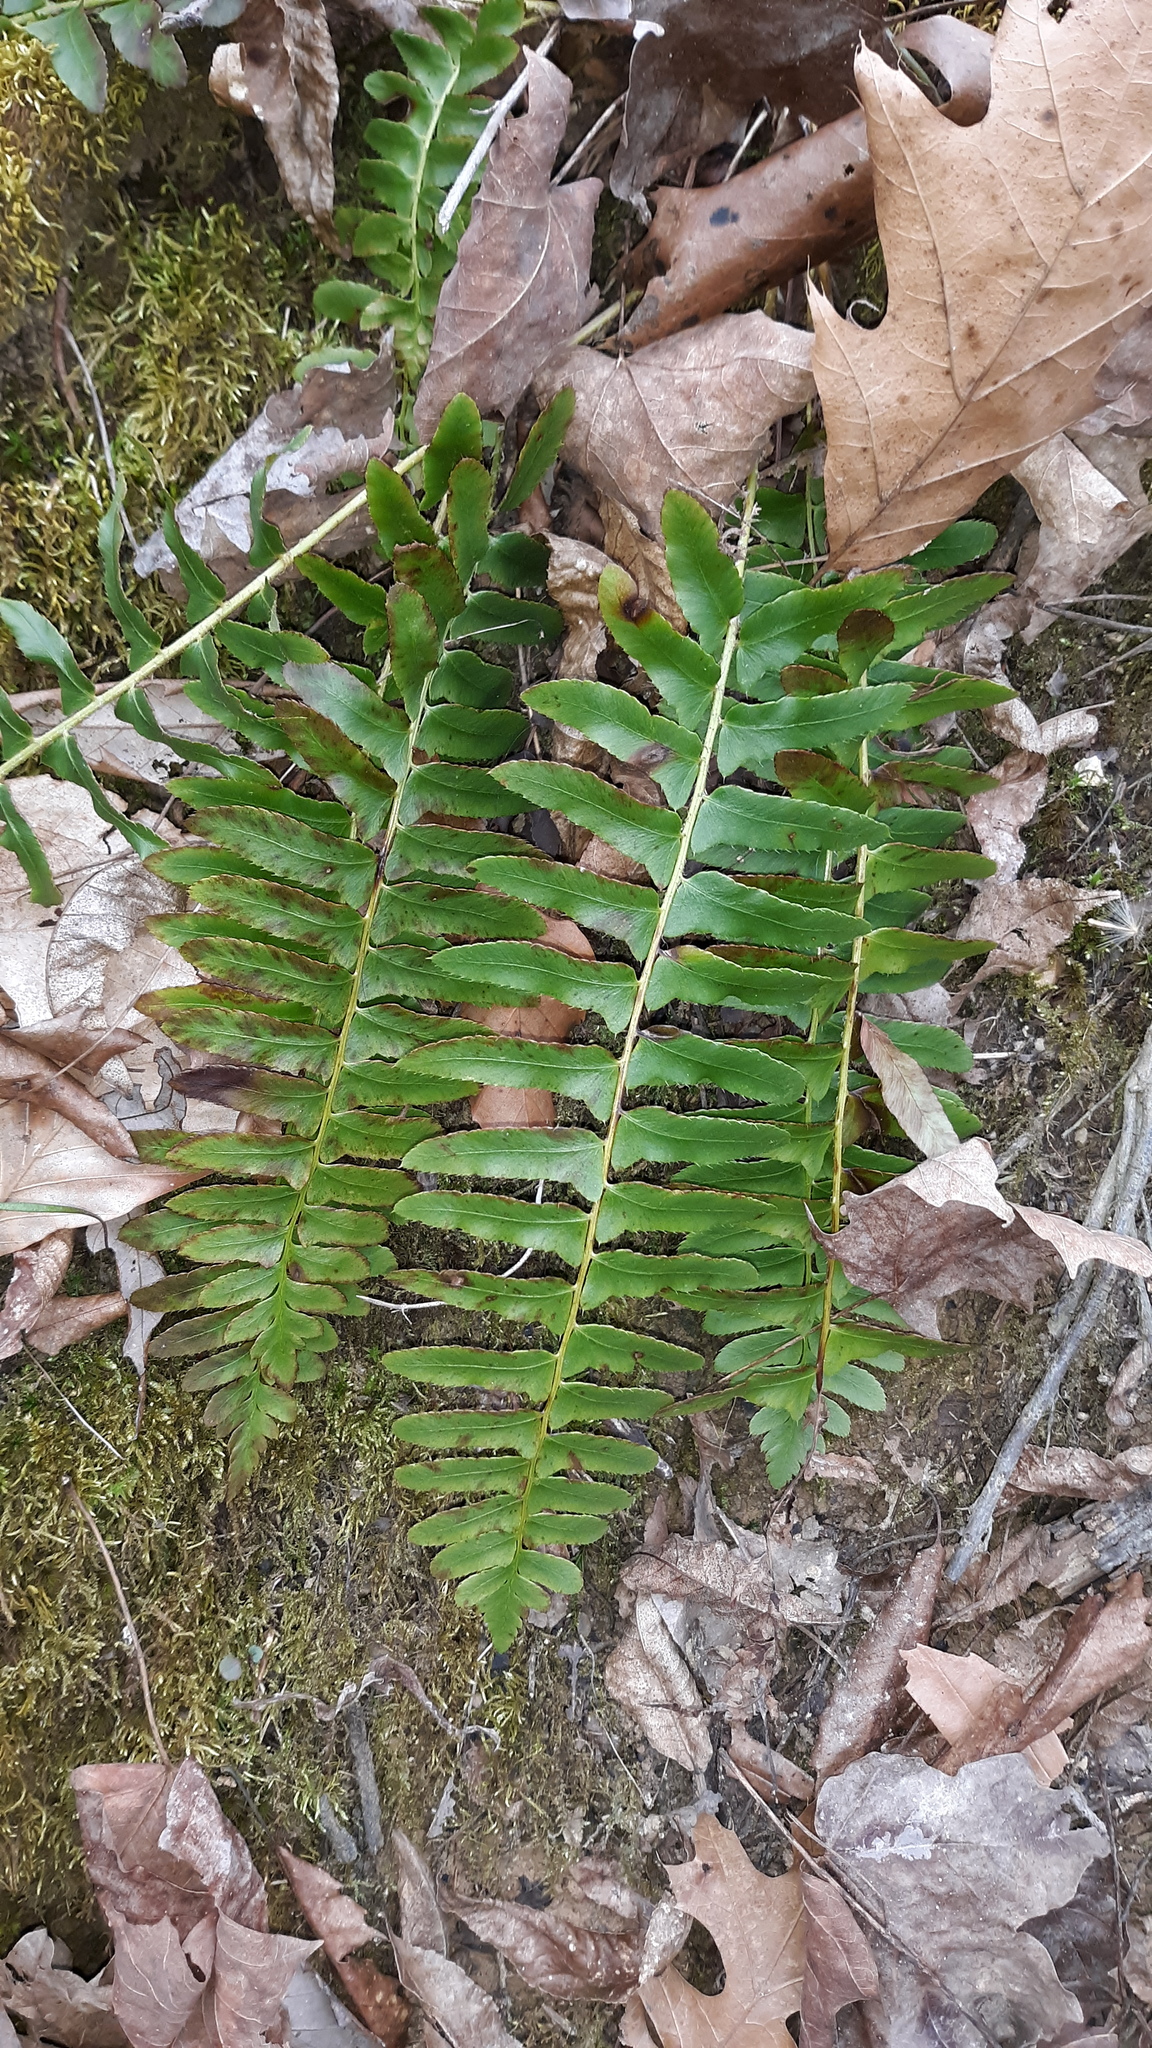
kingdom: Plantae
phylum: Tracheophyta
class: Polypodiopsida
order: Polypodiales
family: Dryopteridaceae
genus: Polystichum
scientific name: Polystichum acrostichoides
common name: Christmas fern
